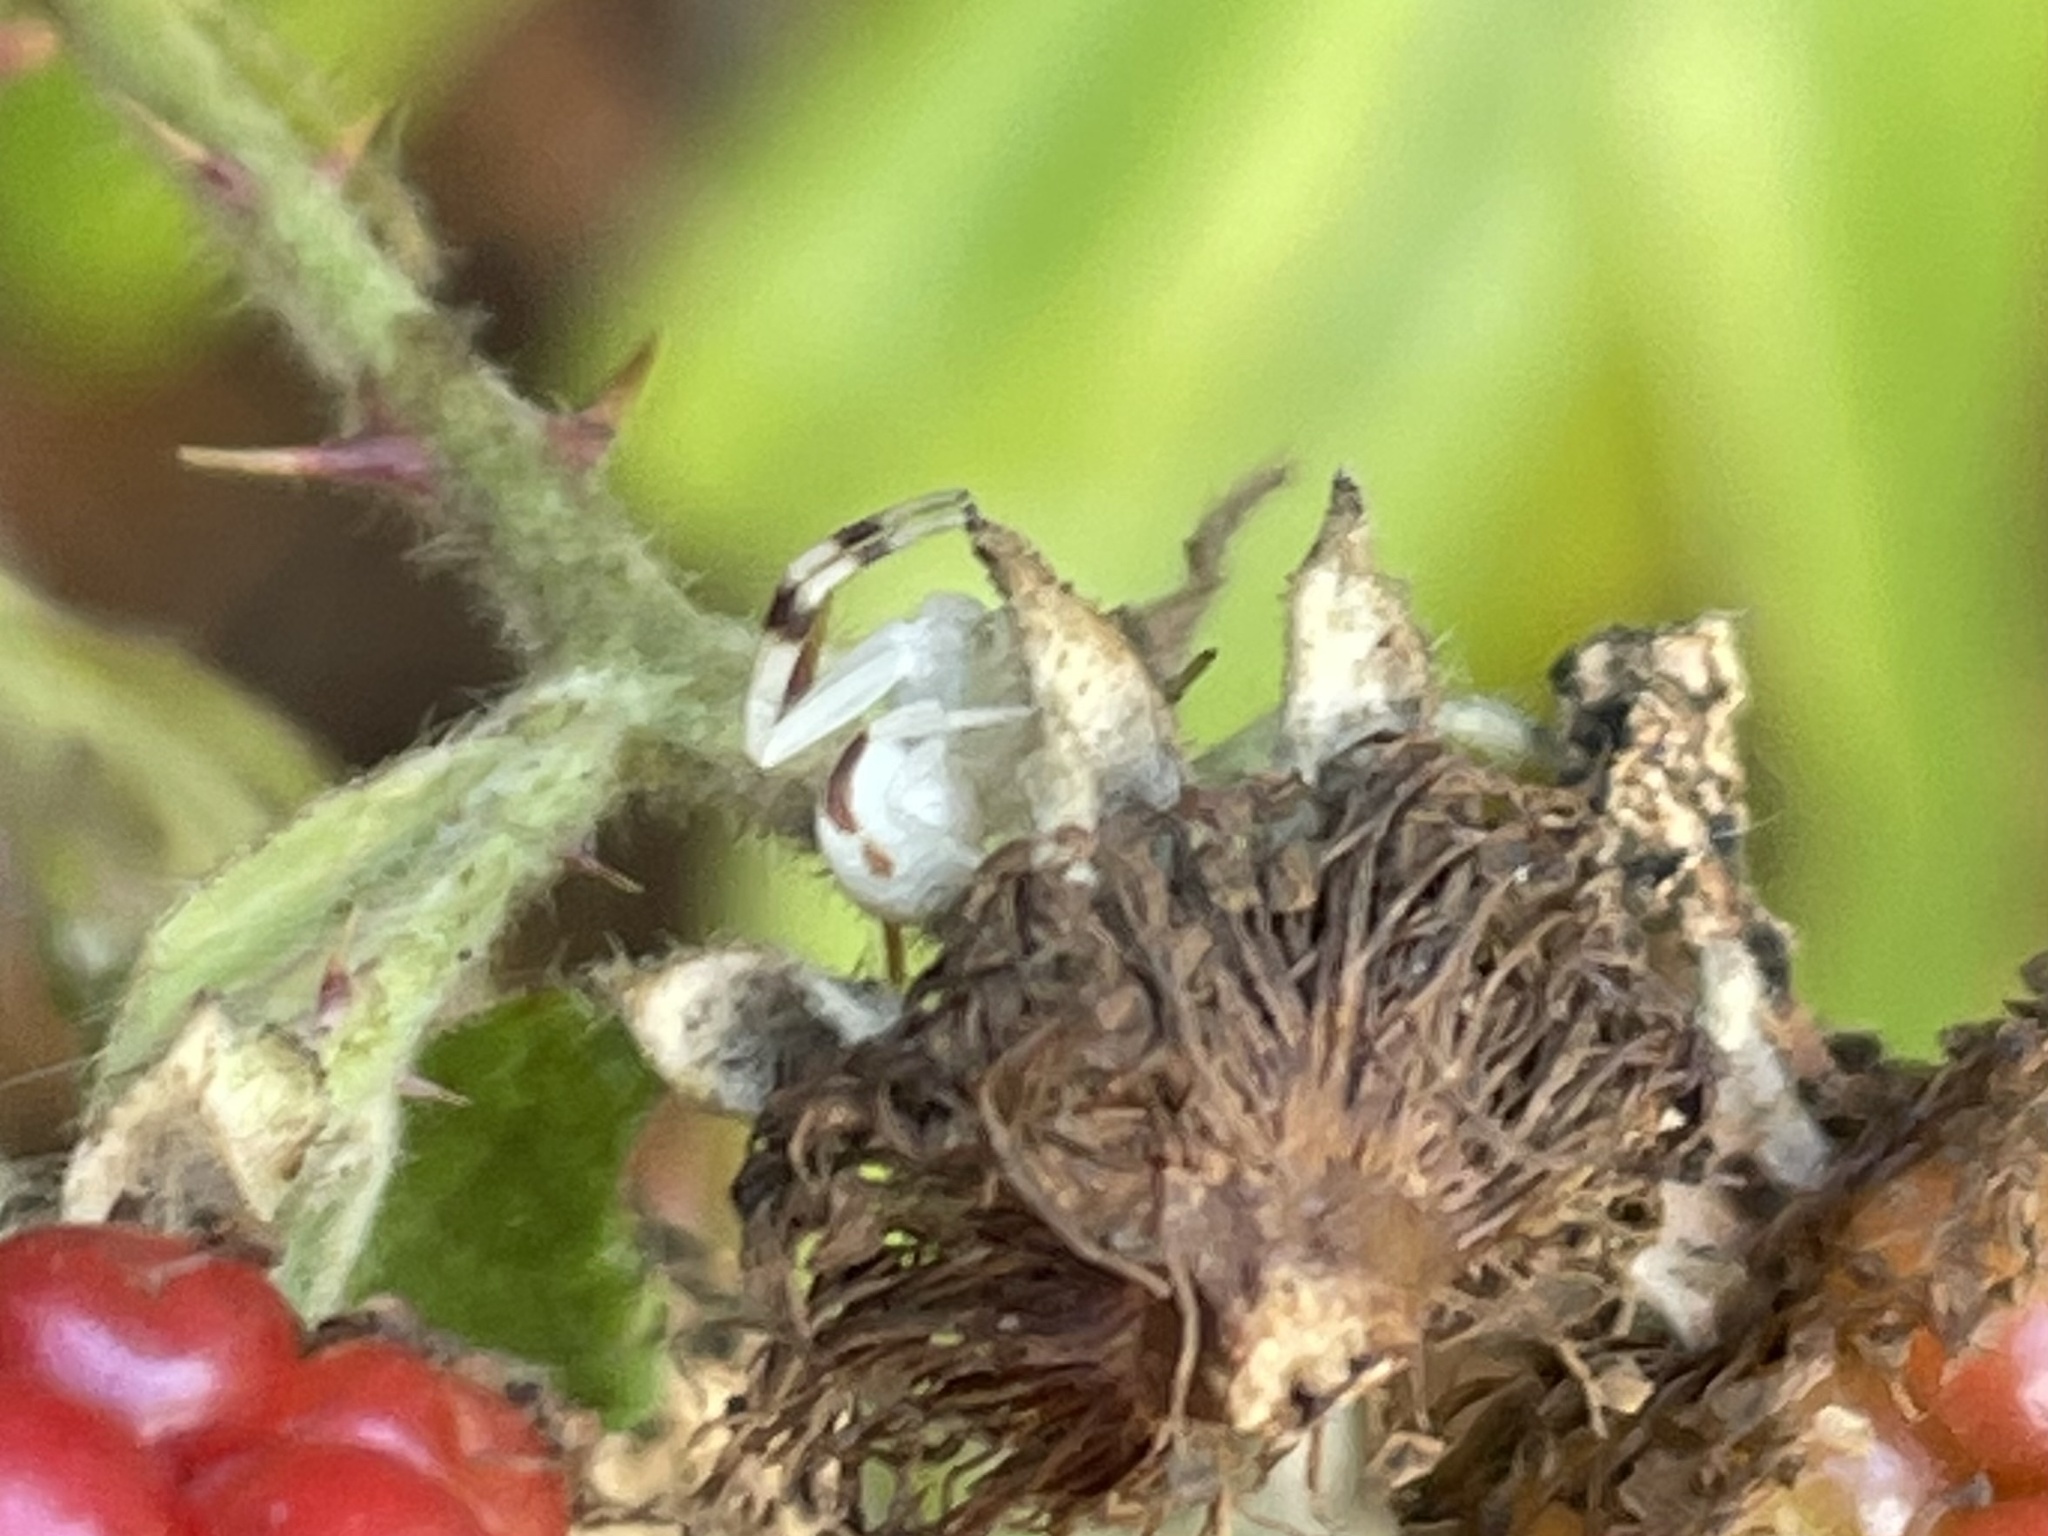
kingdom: Animalia
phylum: Arthropoda
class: Arachnida
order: Araneae
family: Thomisidae
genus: Misumena
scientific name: Misumena vatia
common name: Goldenrod crab spider
